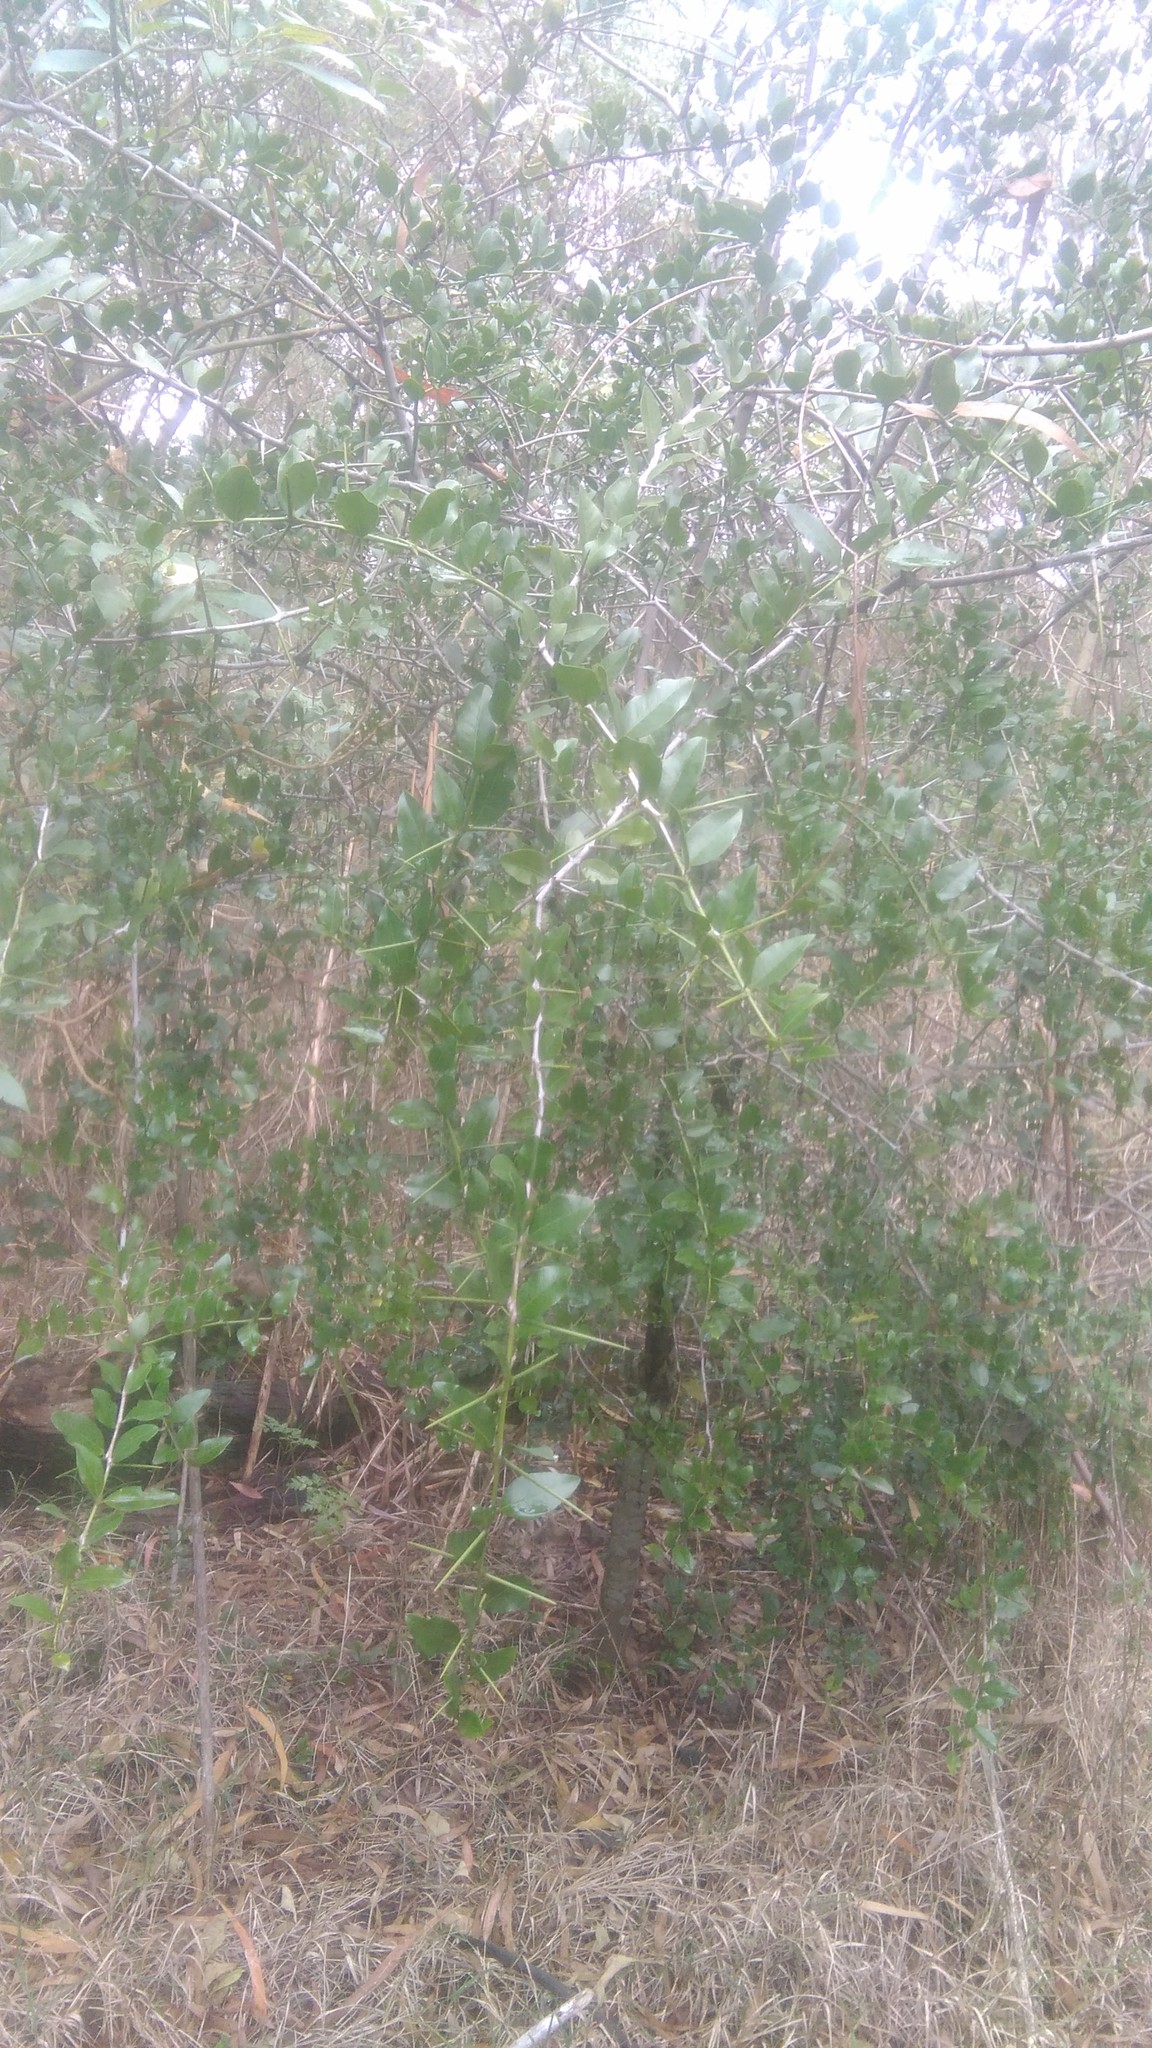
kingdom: Plantae
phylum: Tracheophyta
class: Magnoliopsida
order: Rosales
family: Rhamnaceae
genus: Scutia
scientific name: Scutia buxifolia
